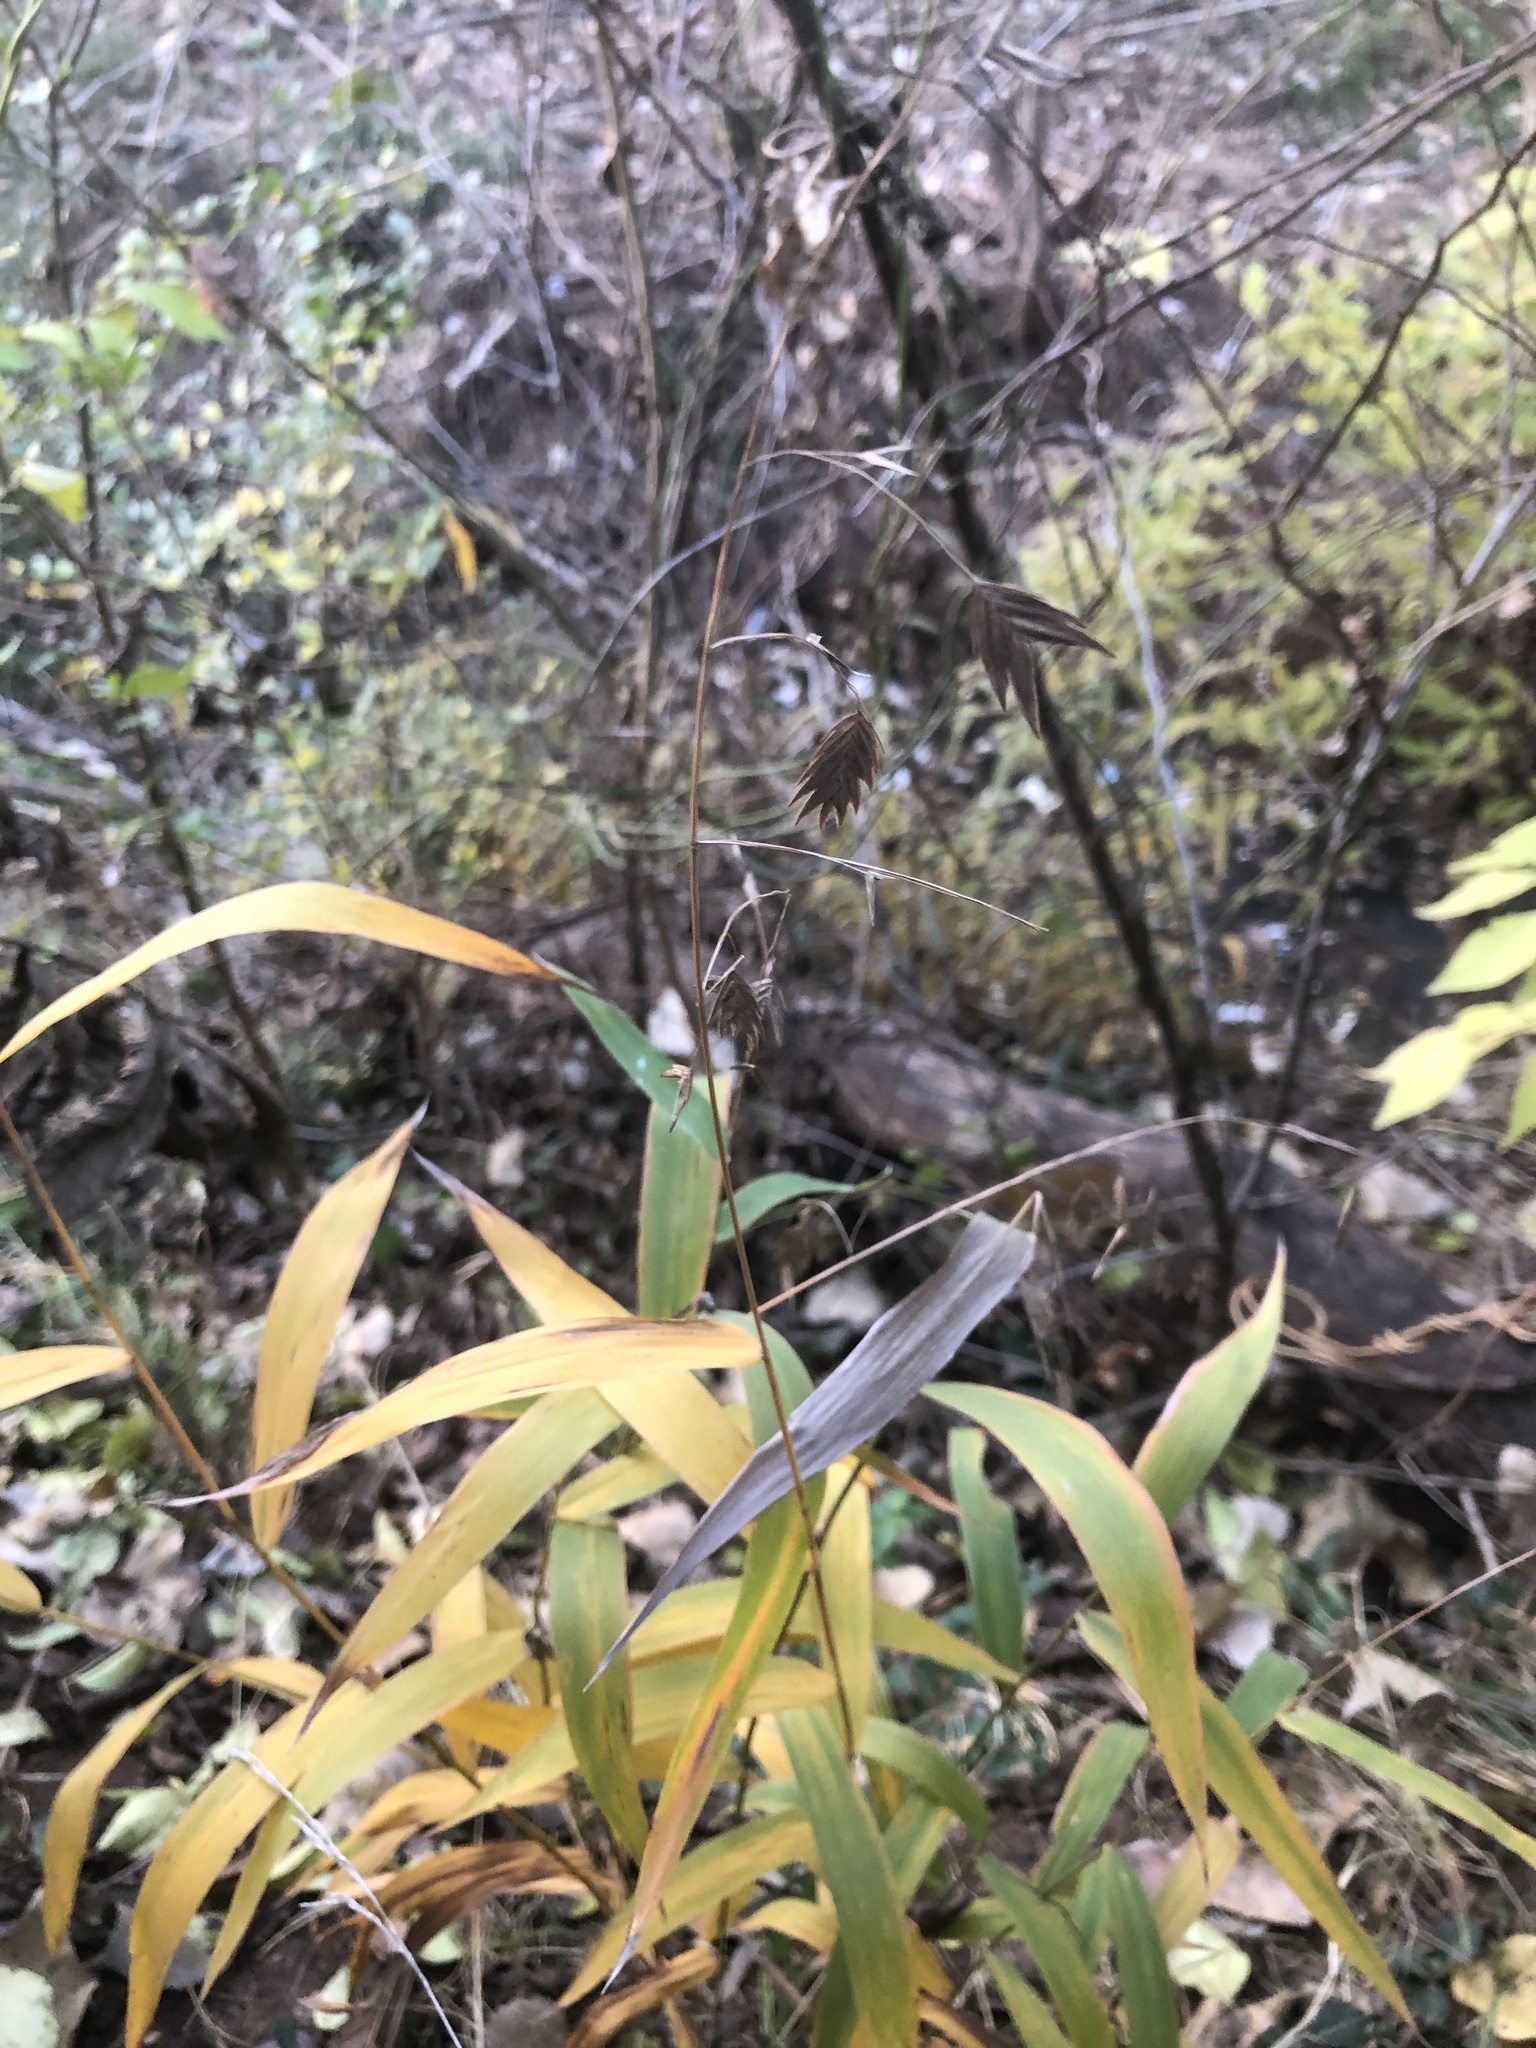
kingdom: Plantae
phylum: Tracheophyta
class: Liliopsida
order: Poales
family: Poaceae
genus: Chasmanthium
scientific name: Chasmanthium latifolium
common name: Broad-leaved chasmanthium
